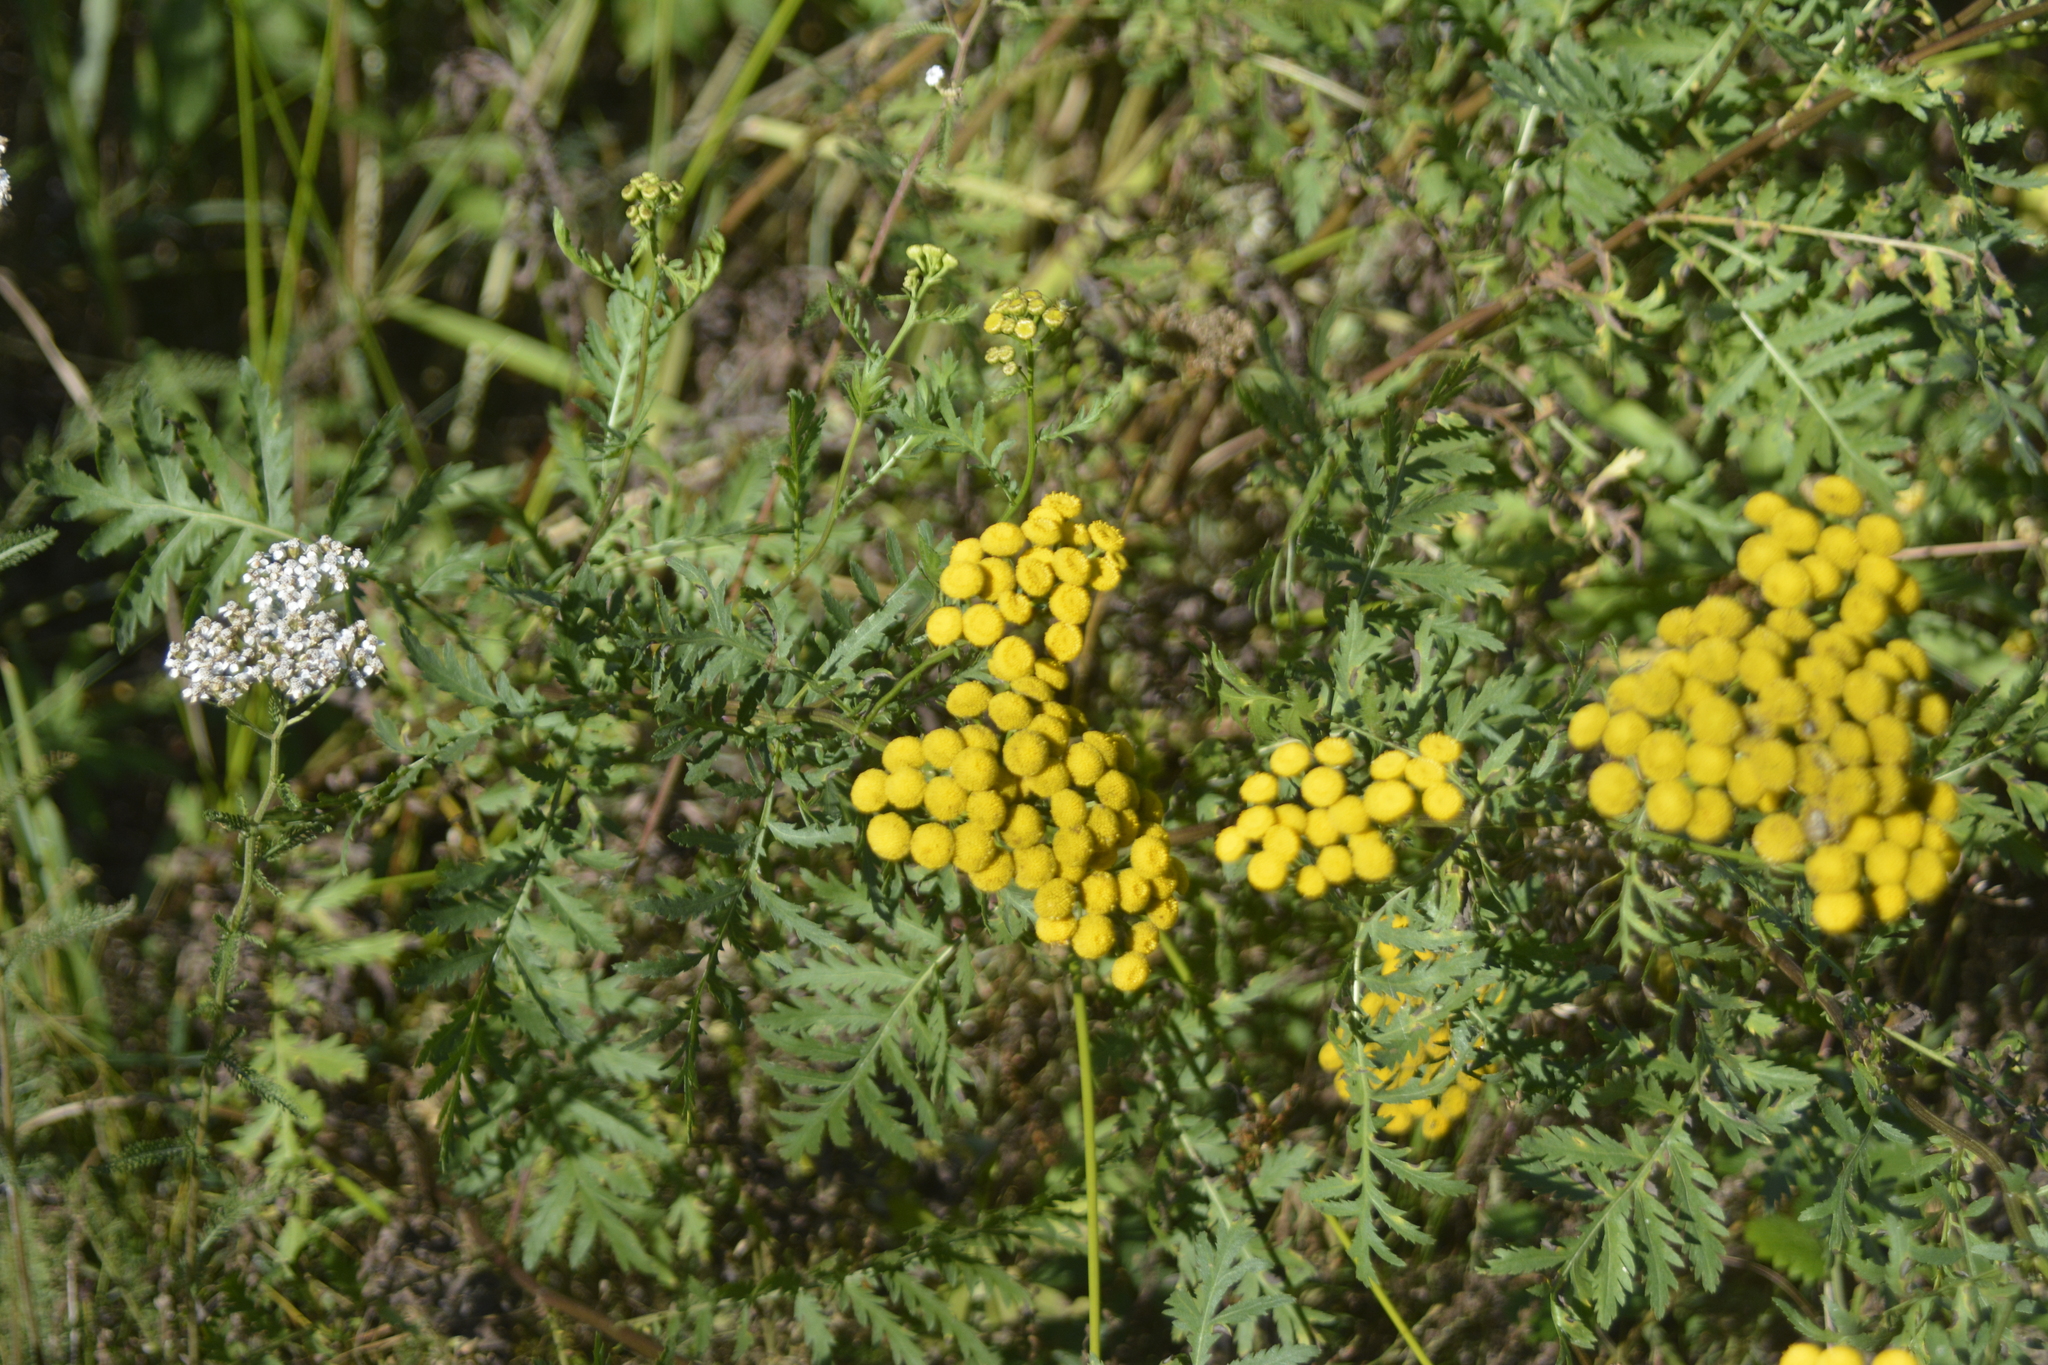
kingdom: Plantae
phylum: Tracheophyta
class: Magnoliopsida
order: Asterales
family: Asteraceae
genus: Tanacetum
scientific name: Tanacetum vulgare
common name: Common tansy
